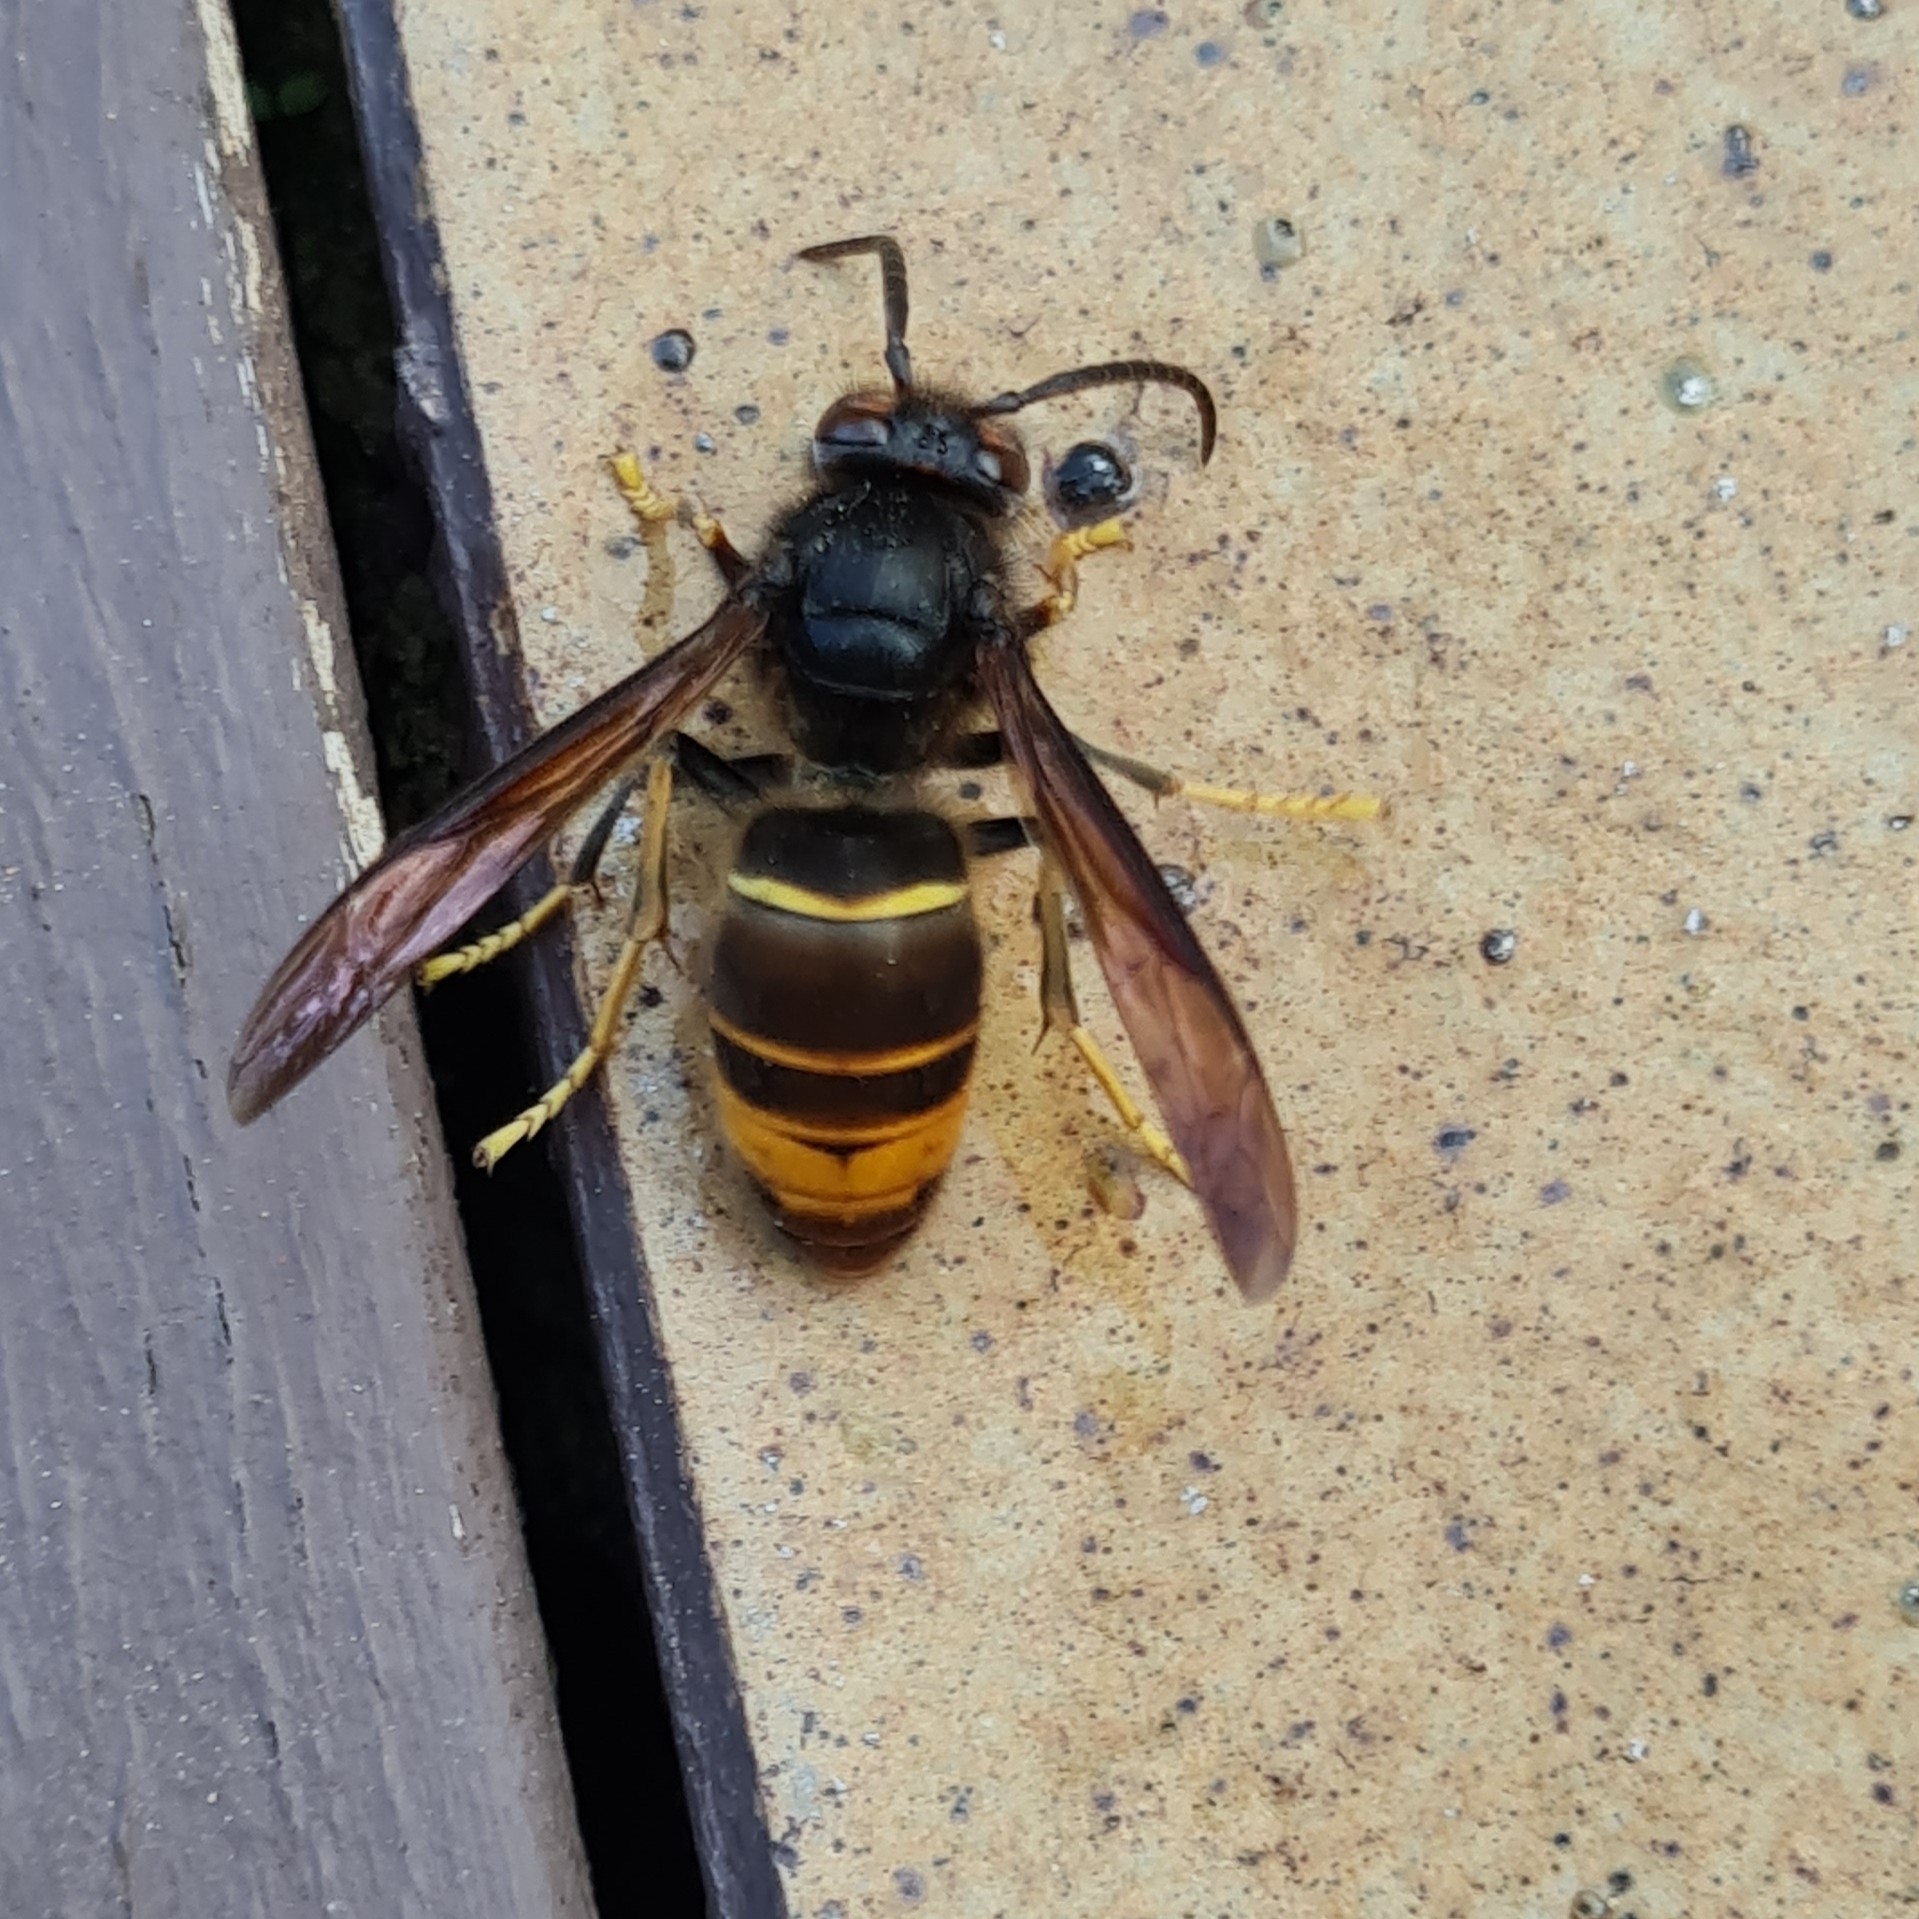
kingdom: Animalia
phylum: Arthropoda
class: Insecta
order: Hymenoptera
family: Vespidae
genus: Vespa
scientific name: Vespa velutina
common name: Asian hornet
